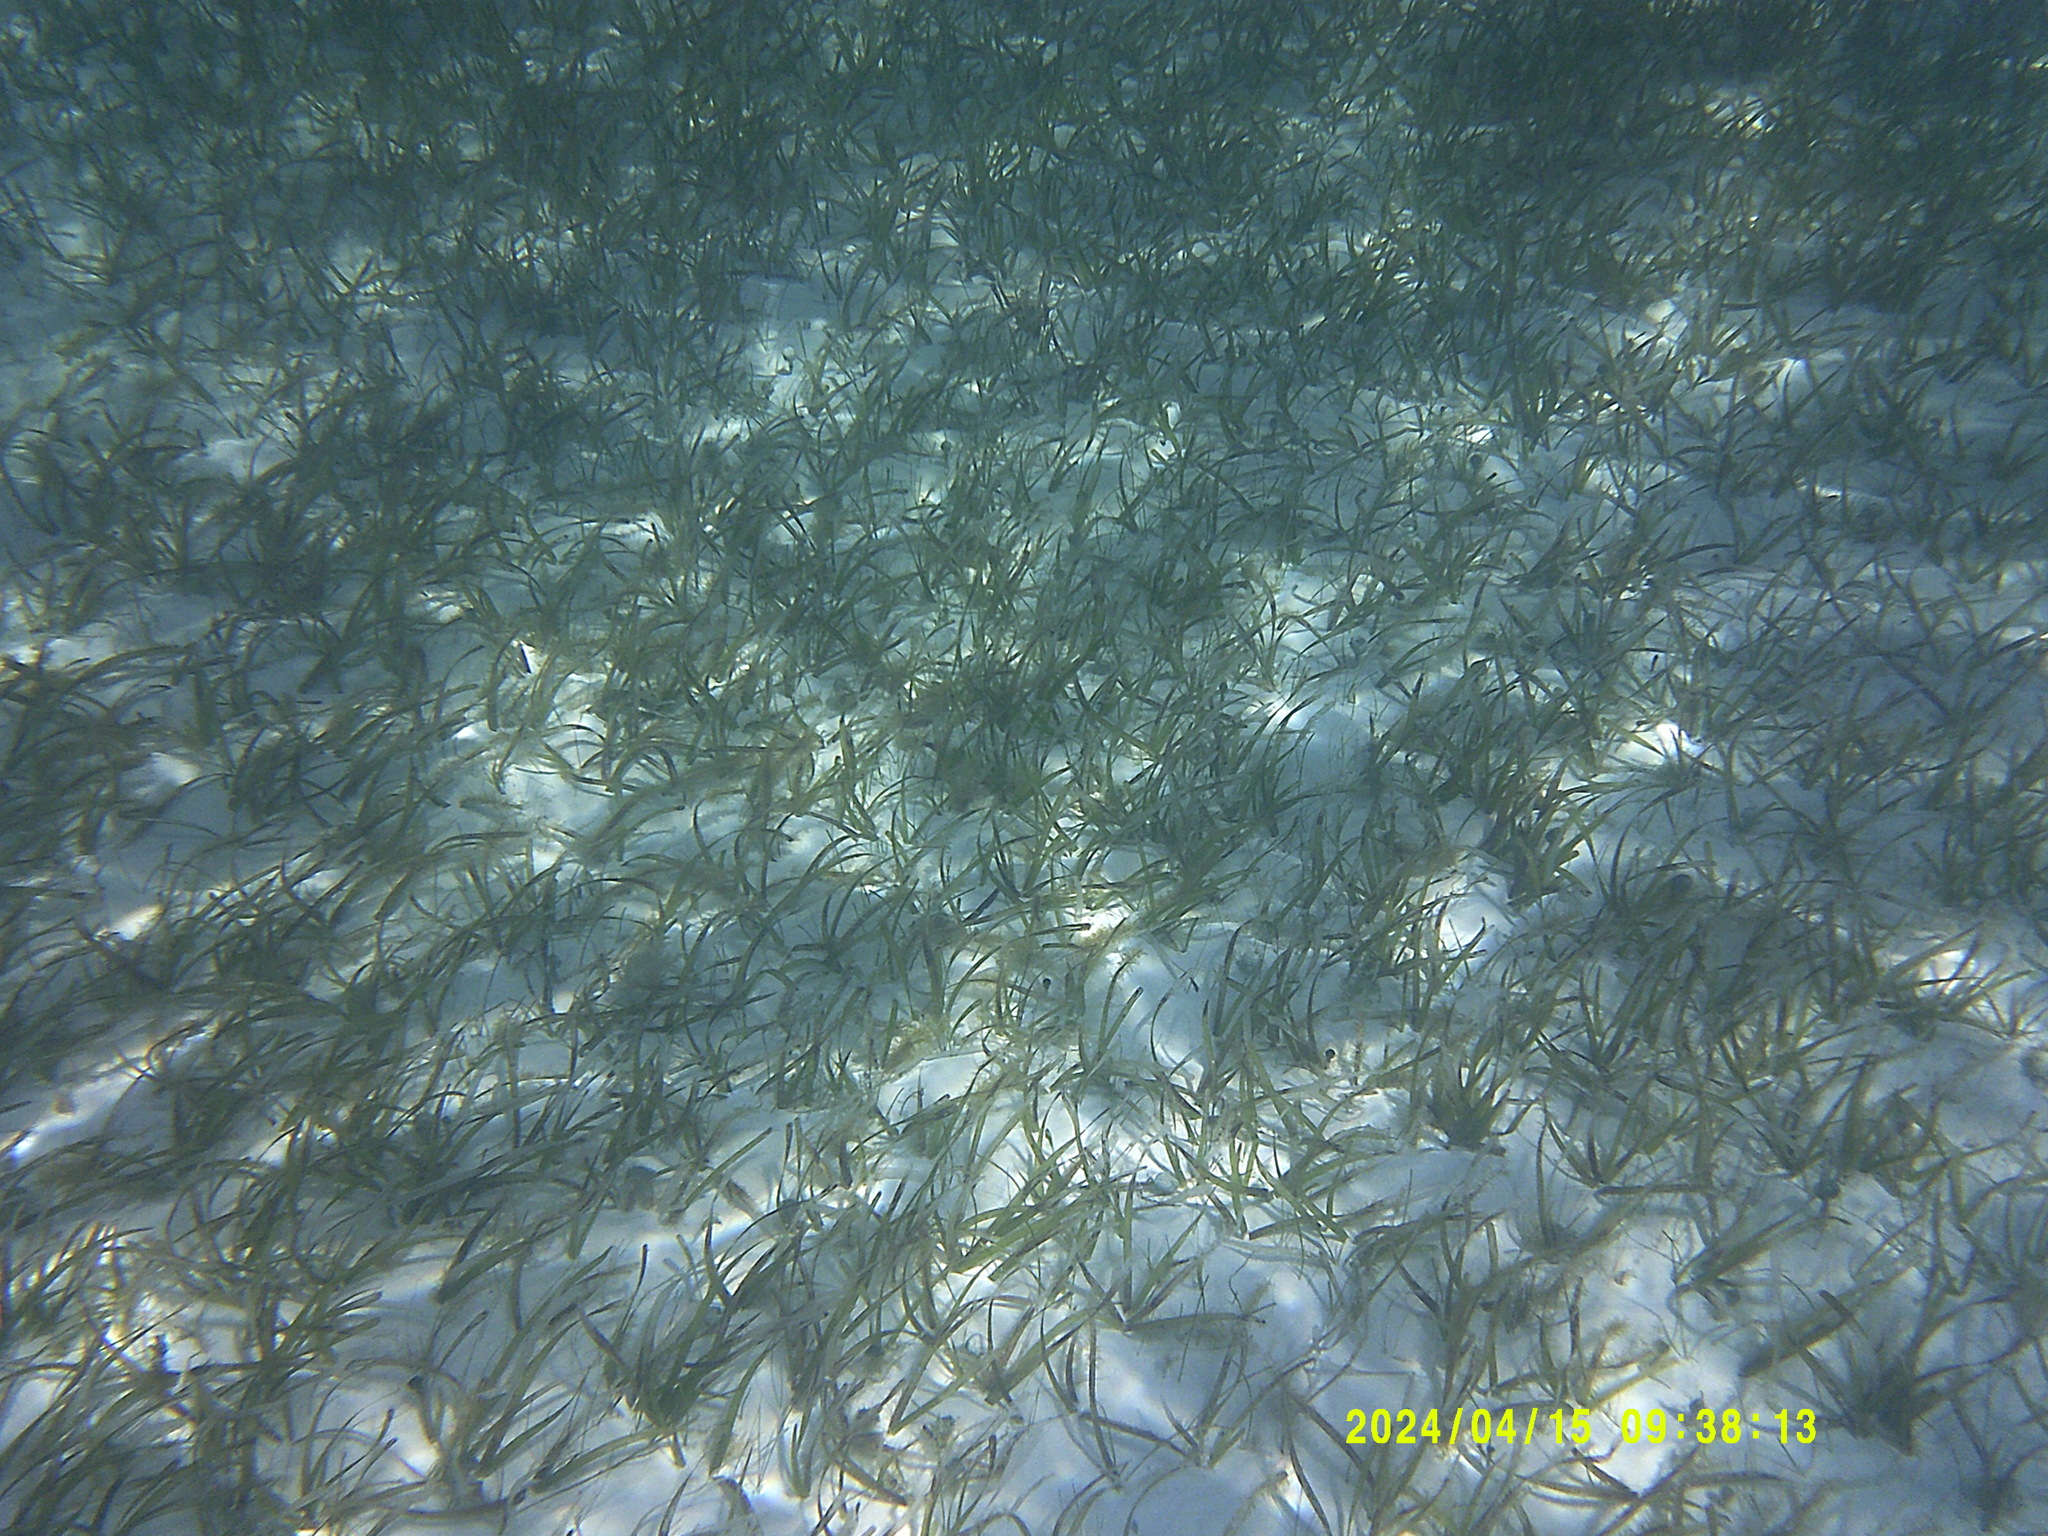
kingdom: Plantae
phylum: Tracheophyta
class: Liliopsida
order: Alismatales
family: Hydrocharitaceae
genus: Thalassia
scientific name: Thalassia testudinum
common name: Species code: tt
